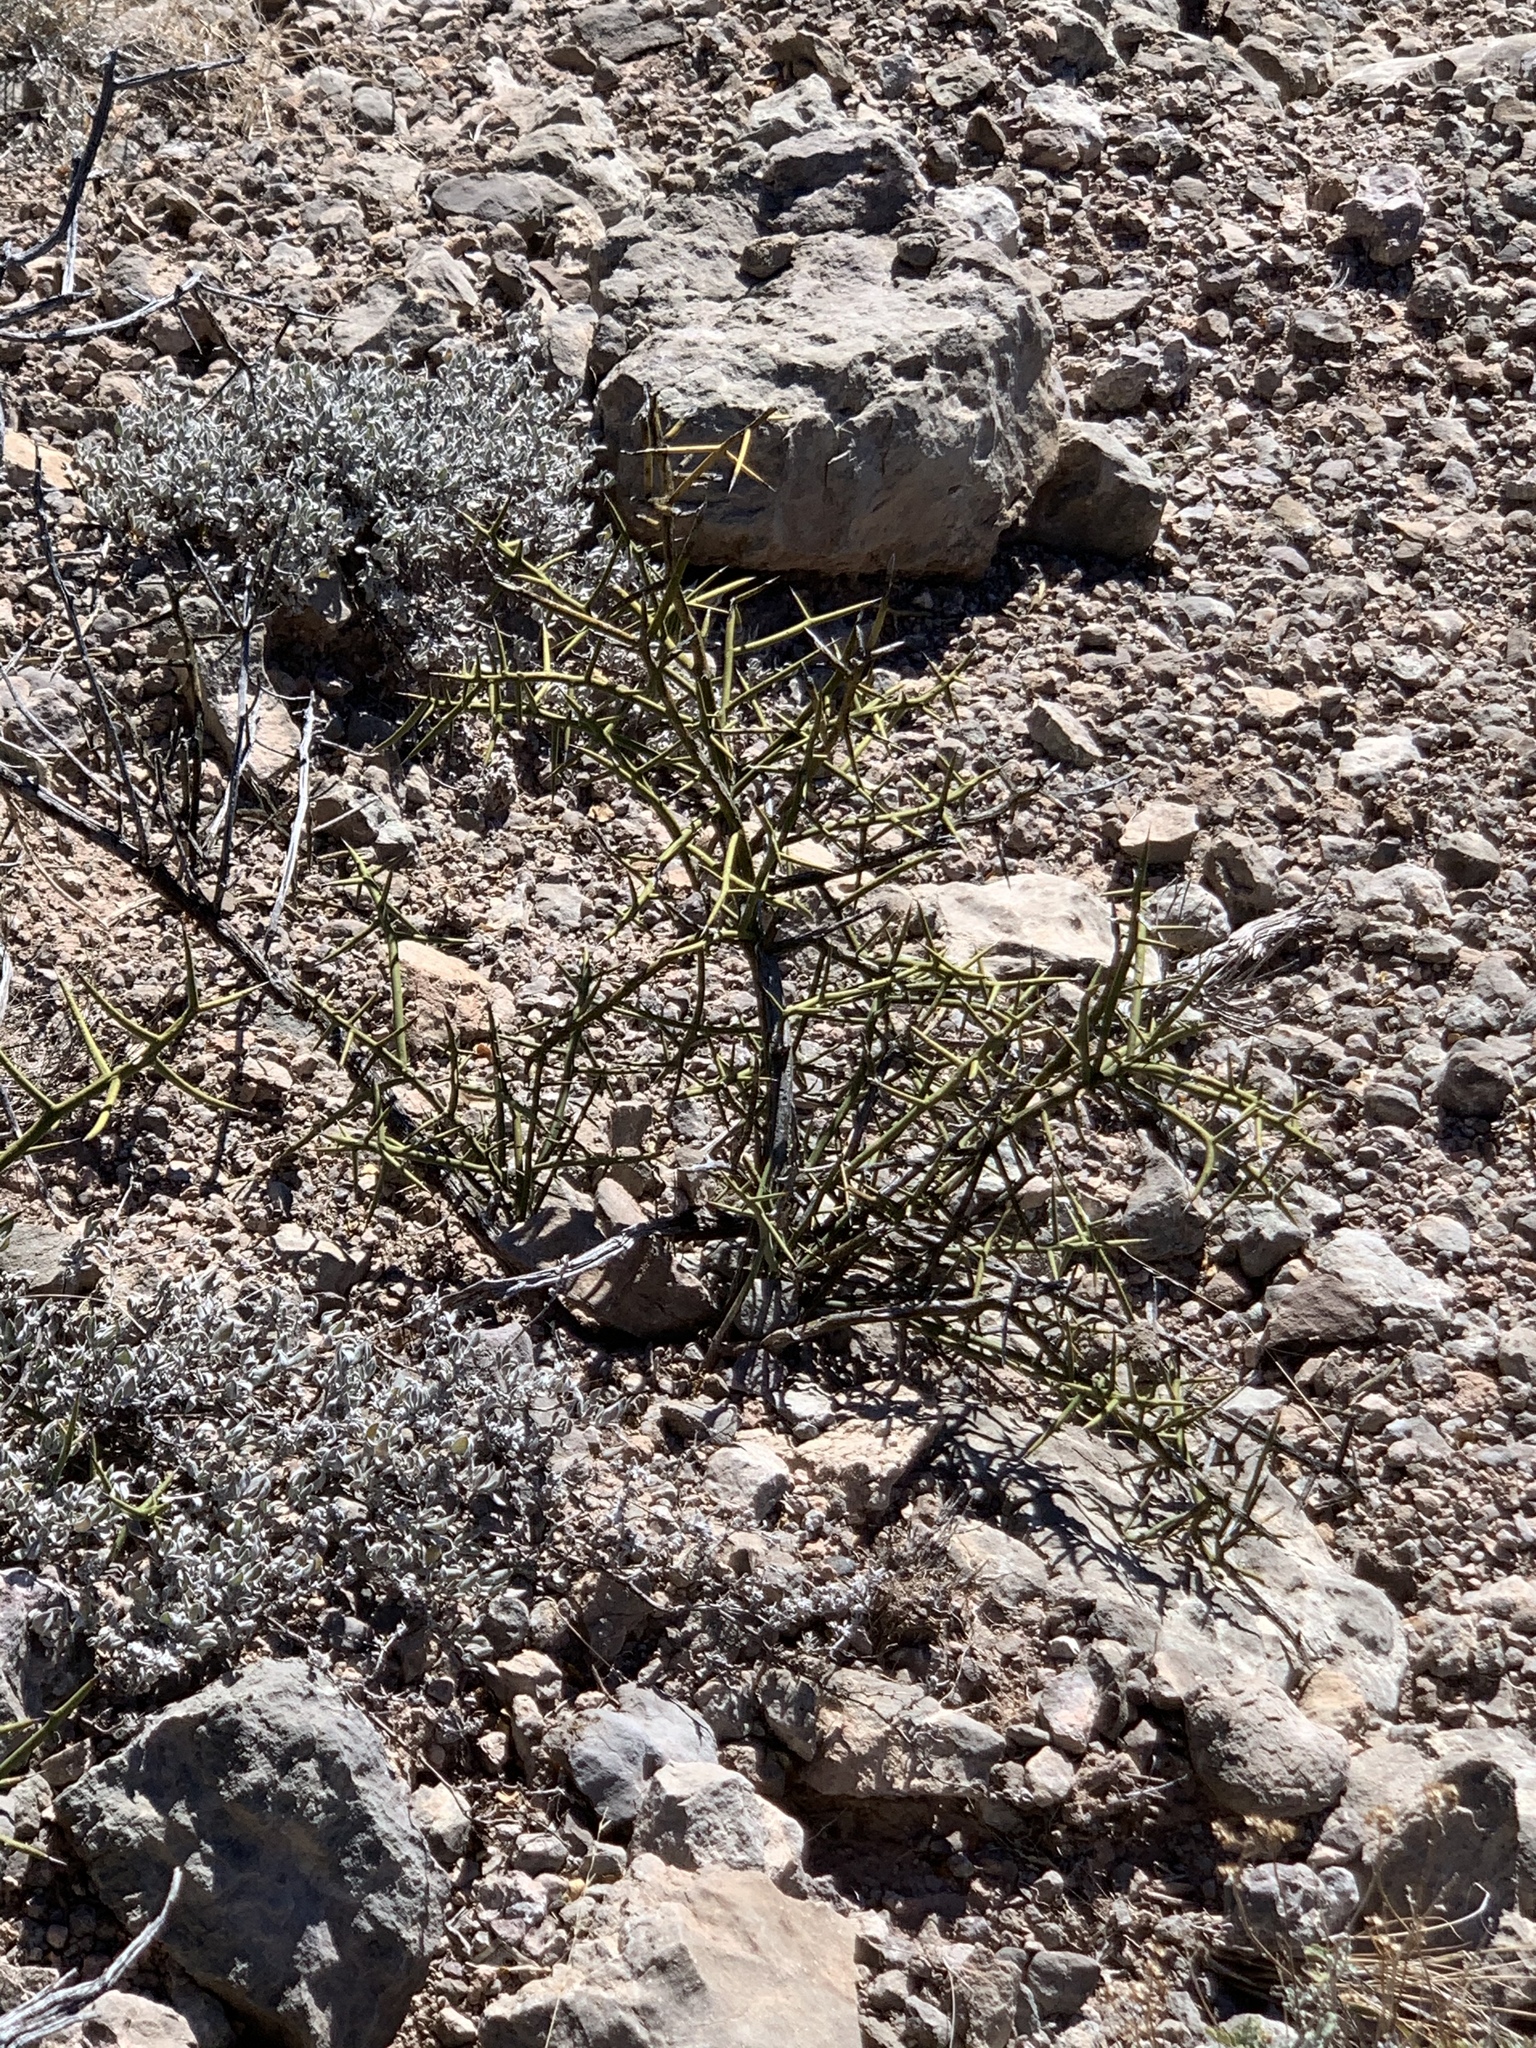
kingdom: Plantae
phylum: Tracheophyta
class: Magnoliopsida
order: Brassicales
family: Koeberliniaceae
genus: Koeberlinia
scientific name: Koeberlinia spinosa
